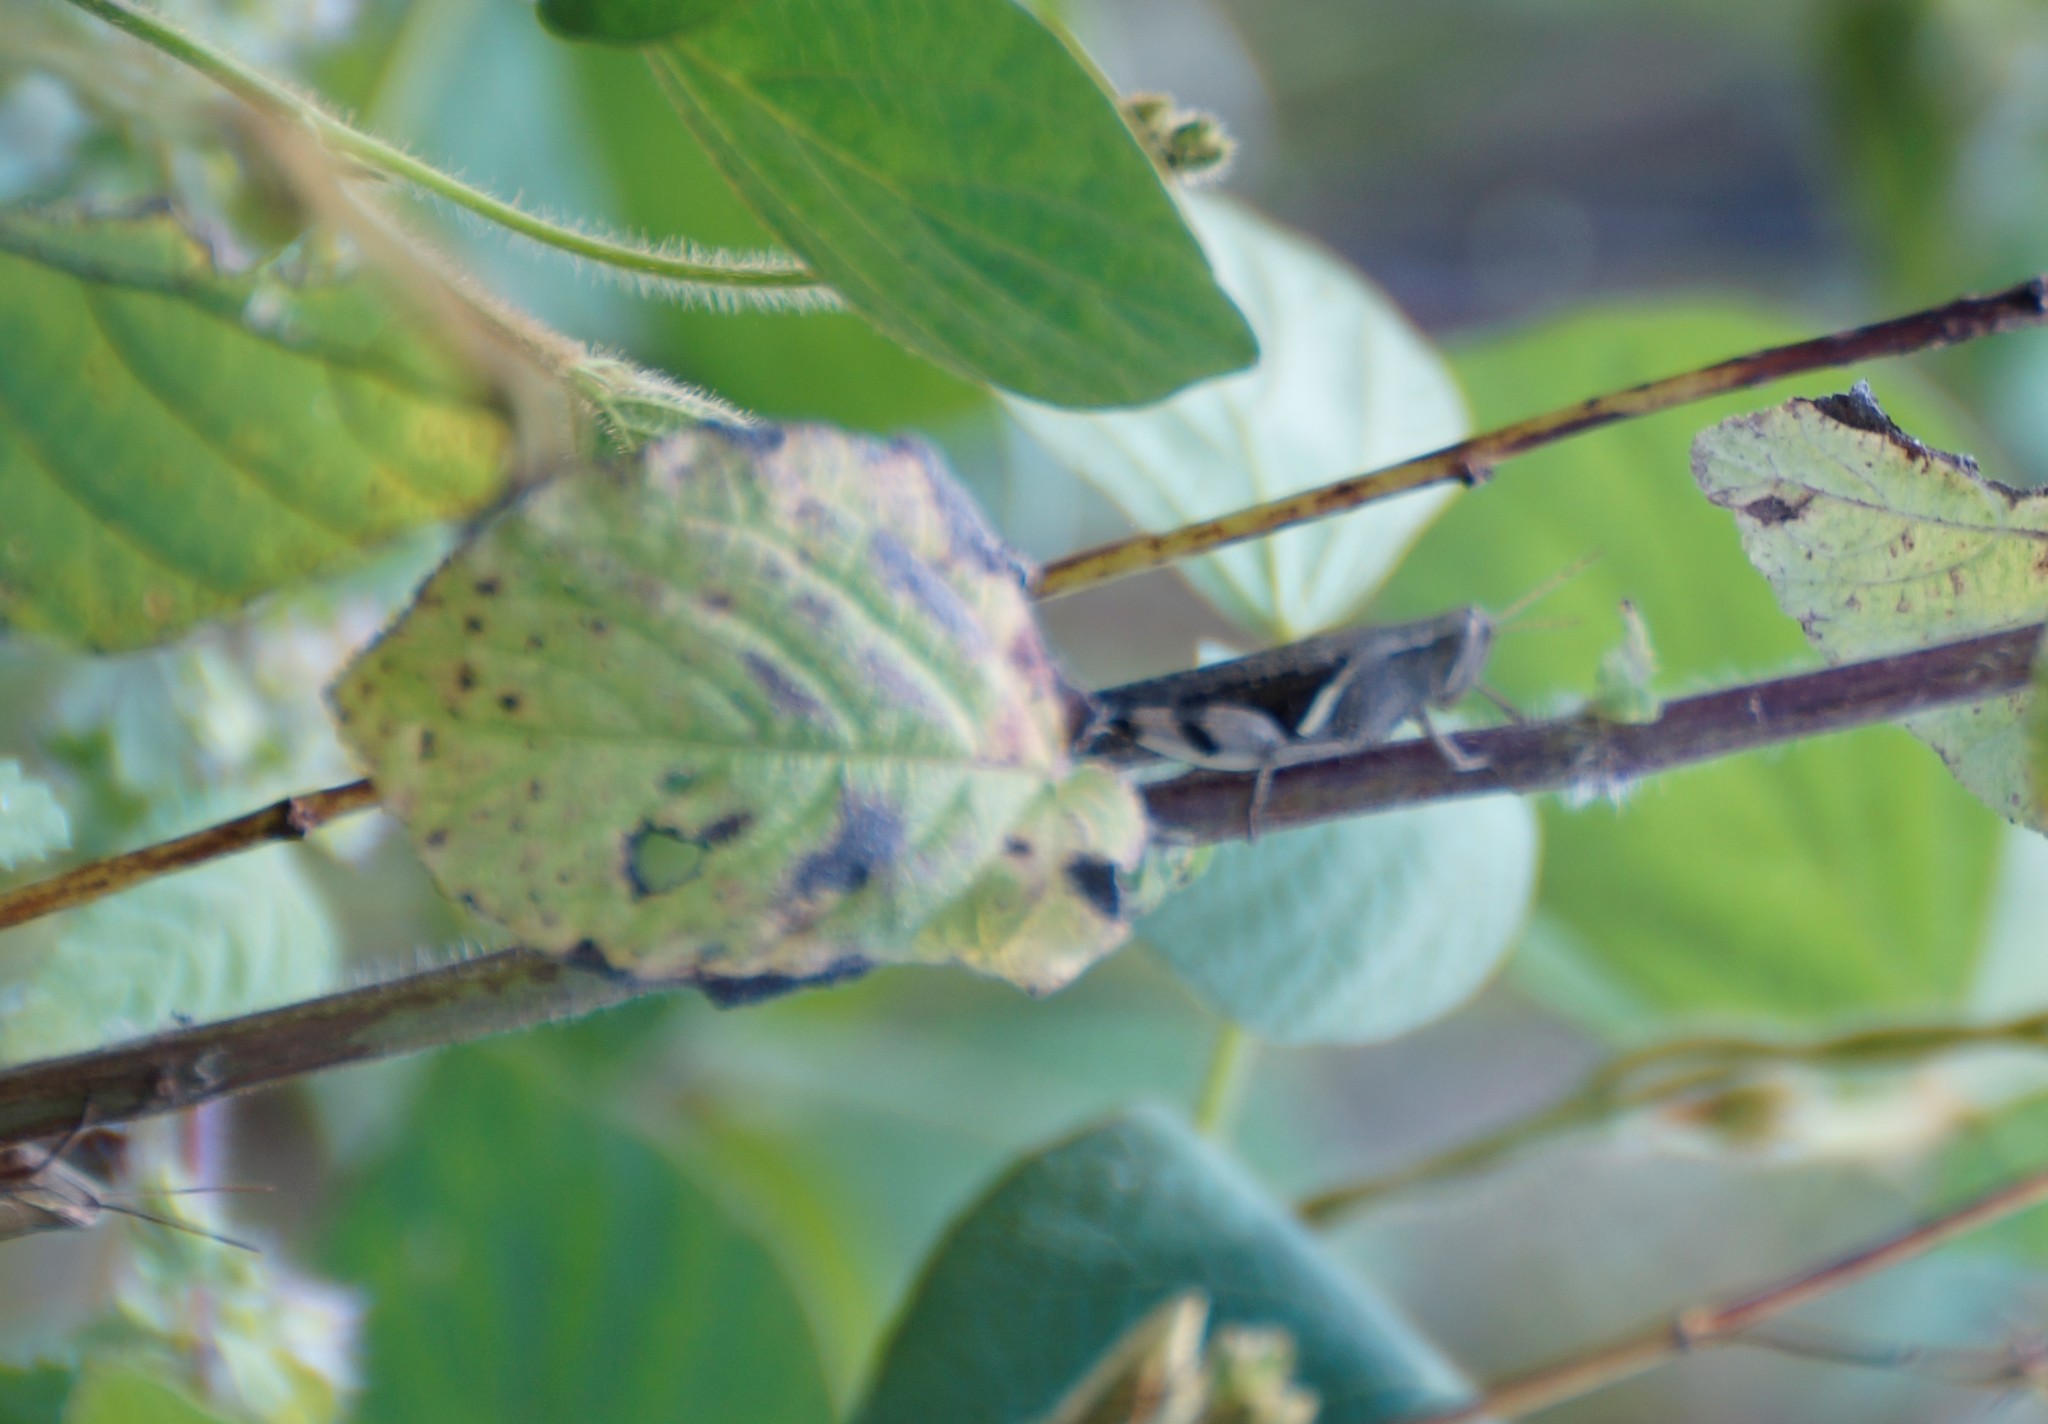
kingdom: Animalia
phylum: Arthropoda
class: Insecta
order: Orthoptera
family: Acrididae
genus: Stenocatantops
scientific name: Stenocatantops angustifrons
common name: Common tropical sharptail
